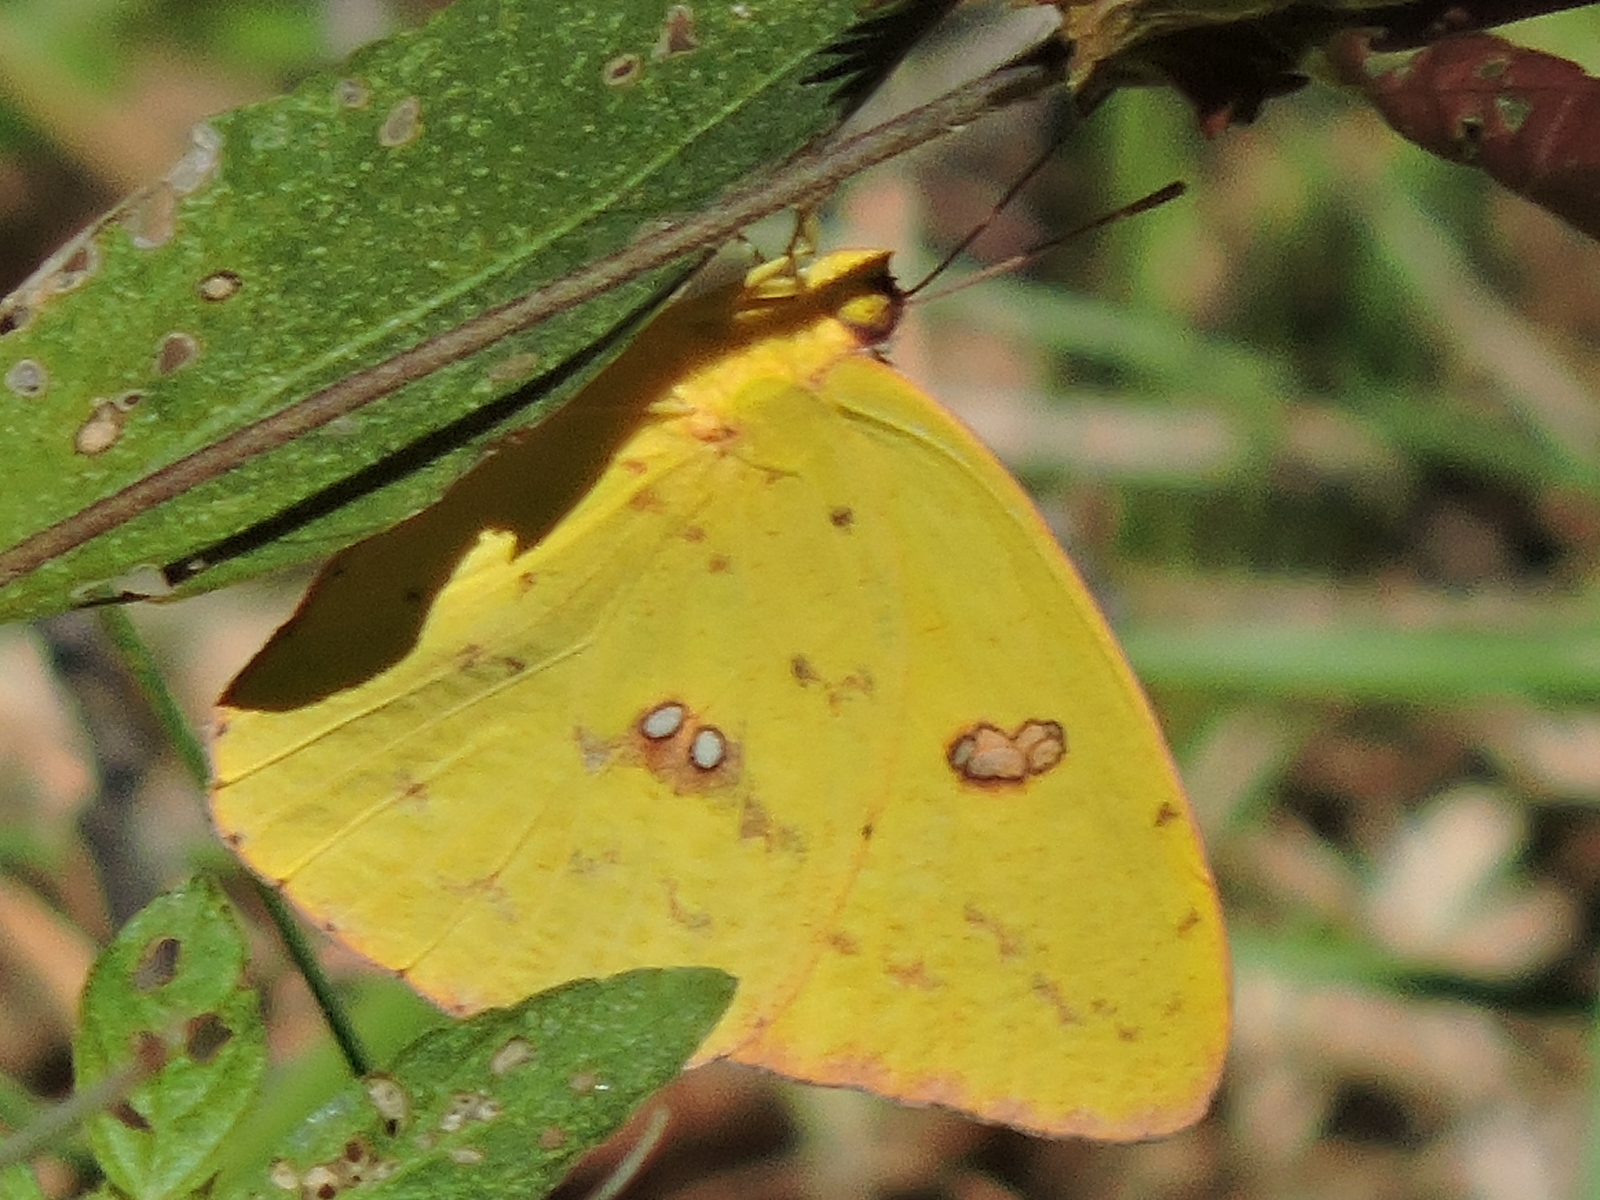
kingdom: Animalia
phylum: Arthropoda
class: Insecta
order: Lepidoptera
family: Pieridae
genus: Phoebis
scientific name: Phoebis sennae
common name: Cloudless sulphur
